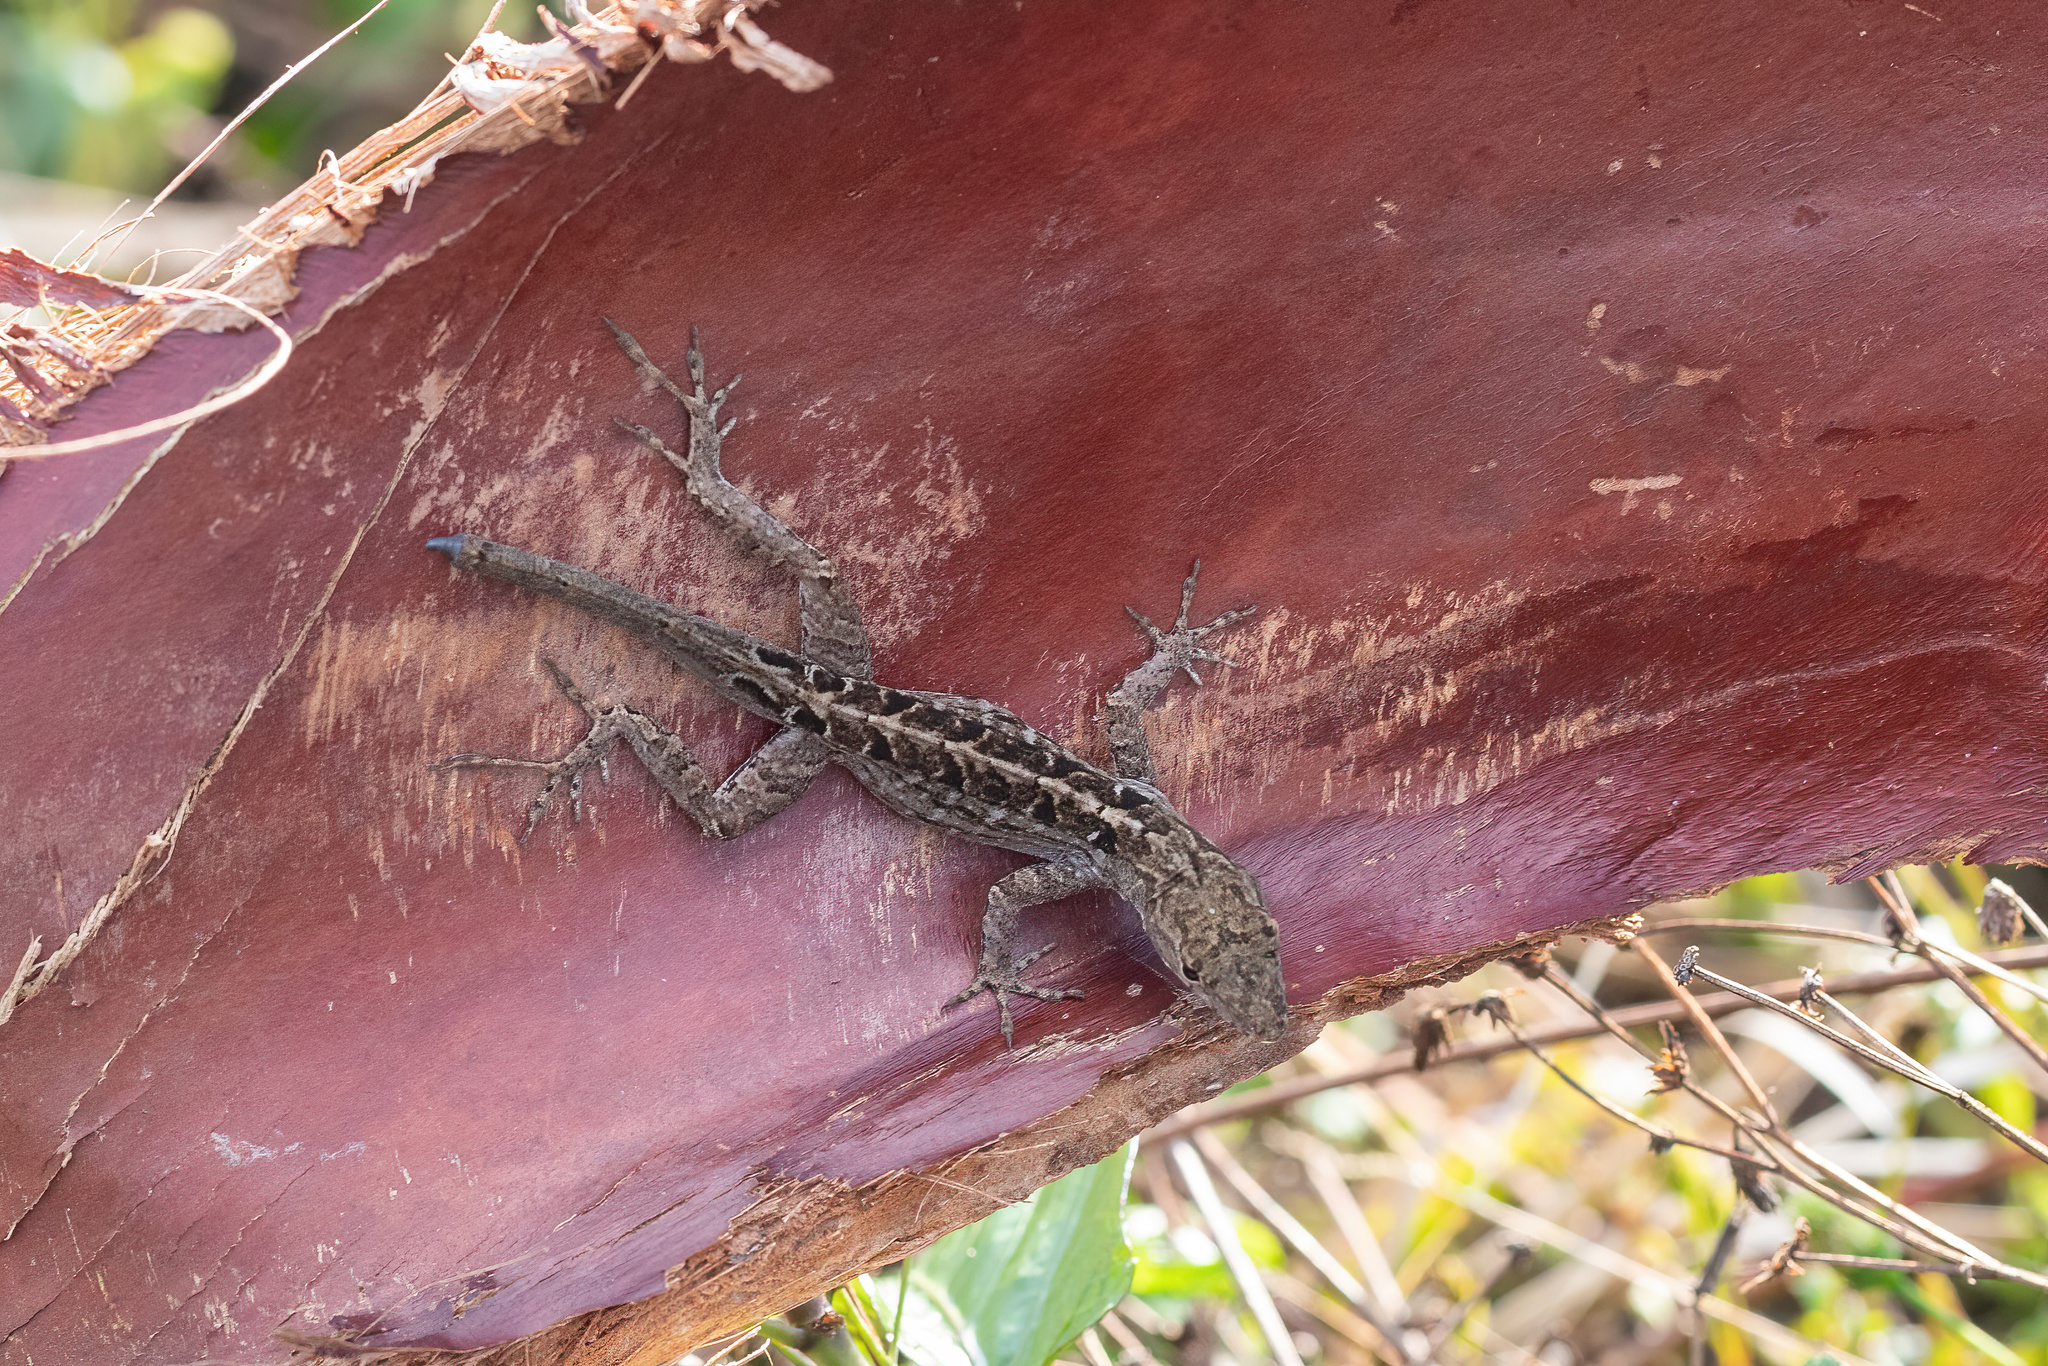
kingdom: Animalia
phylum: Chordata
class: Squamata
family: Dactyloidae
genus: Anolis
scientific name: Anolis sagrei
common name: Brown anole
